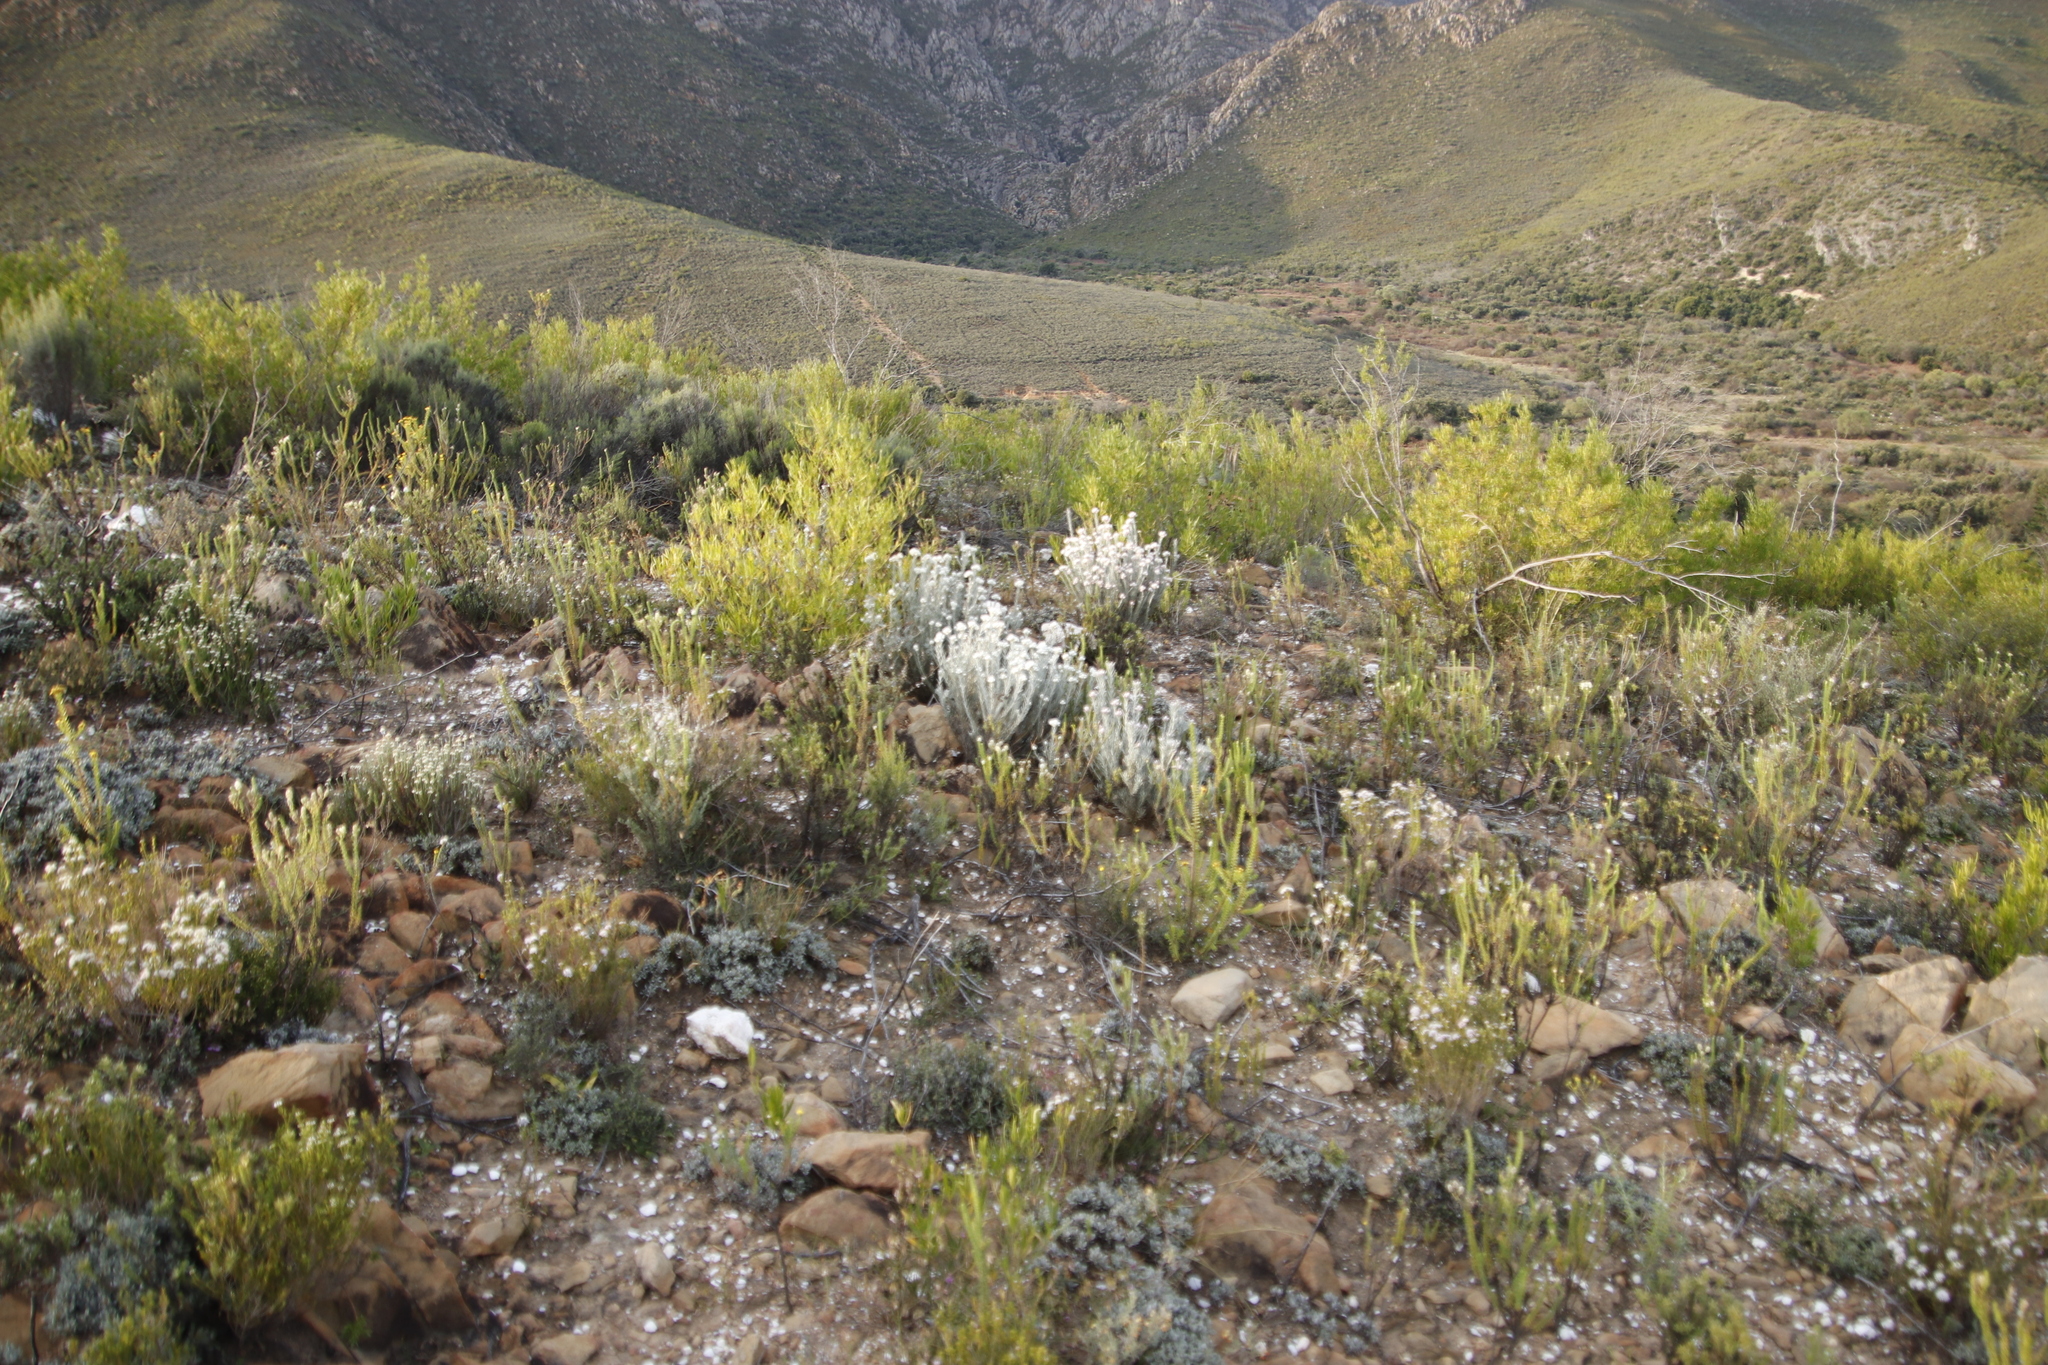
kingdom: Plantae
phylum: Tracheophyta
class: Magnoliopsida
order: Asterales
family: Asteraceae
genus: Achyranthemum
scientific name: Achyranthemum paniculatum
